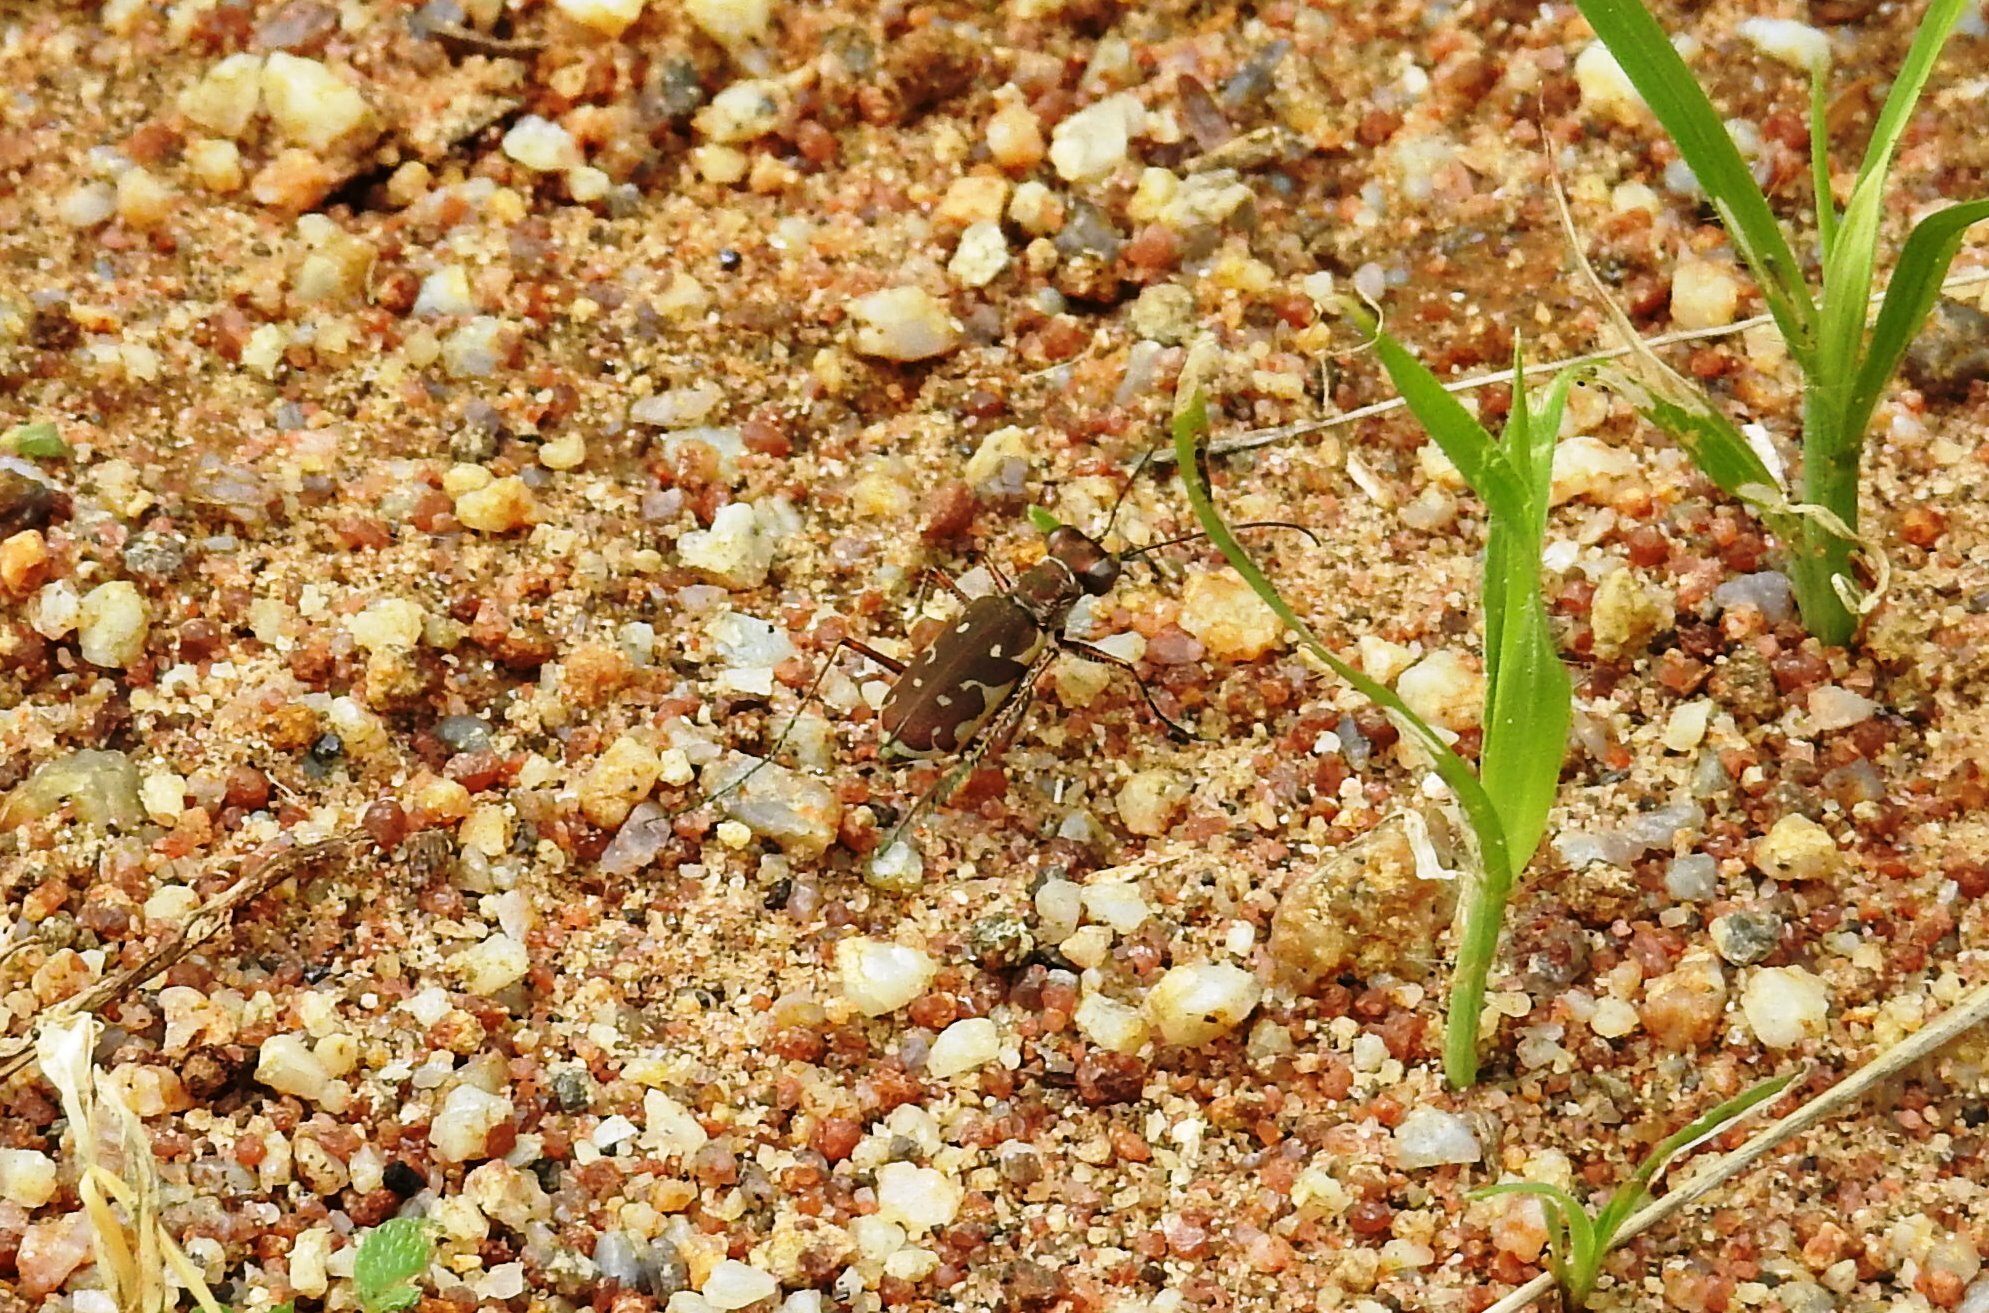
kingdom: Animalia
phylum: Arthropoda
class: Insecta
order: Coleoptera
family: Carabidae
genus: Myriochila
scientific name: Myriochila fastidiosa
